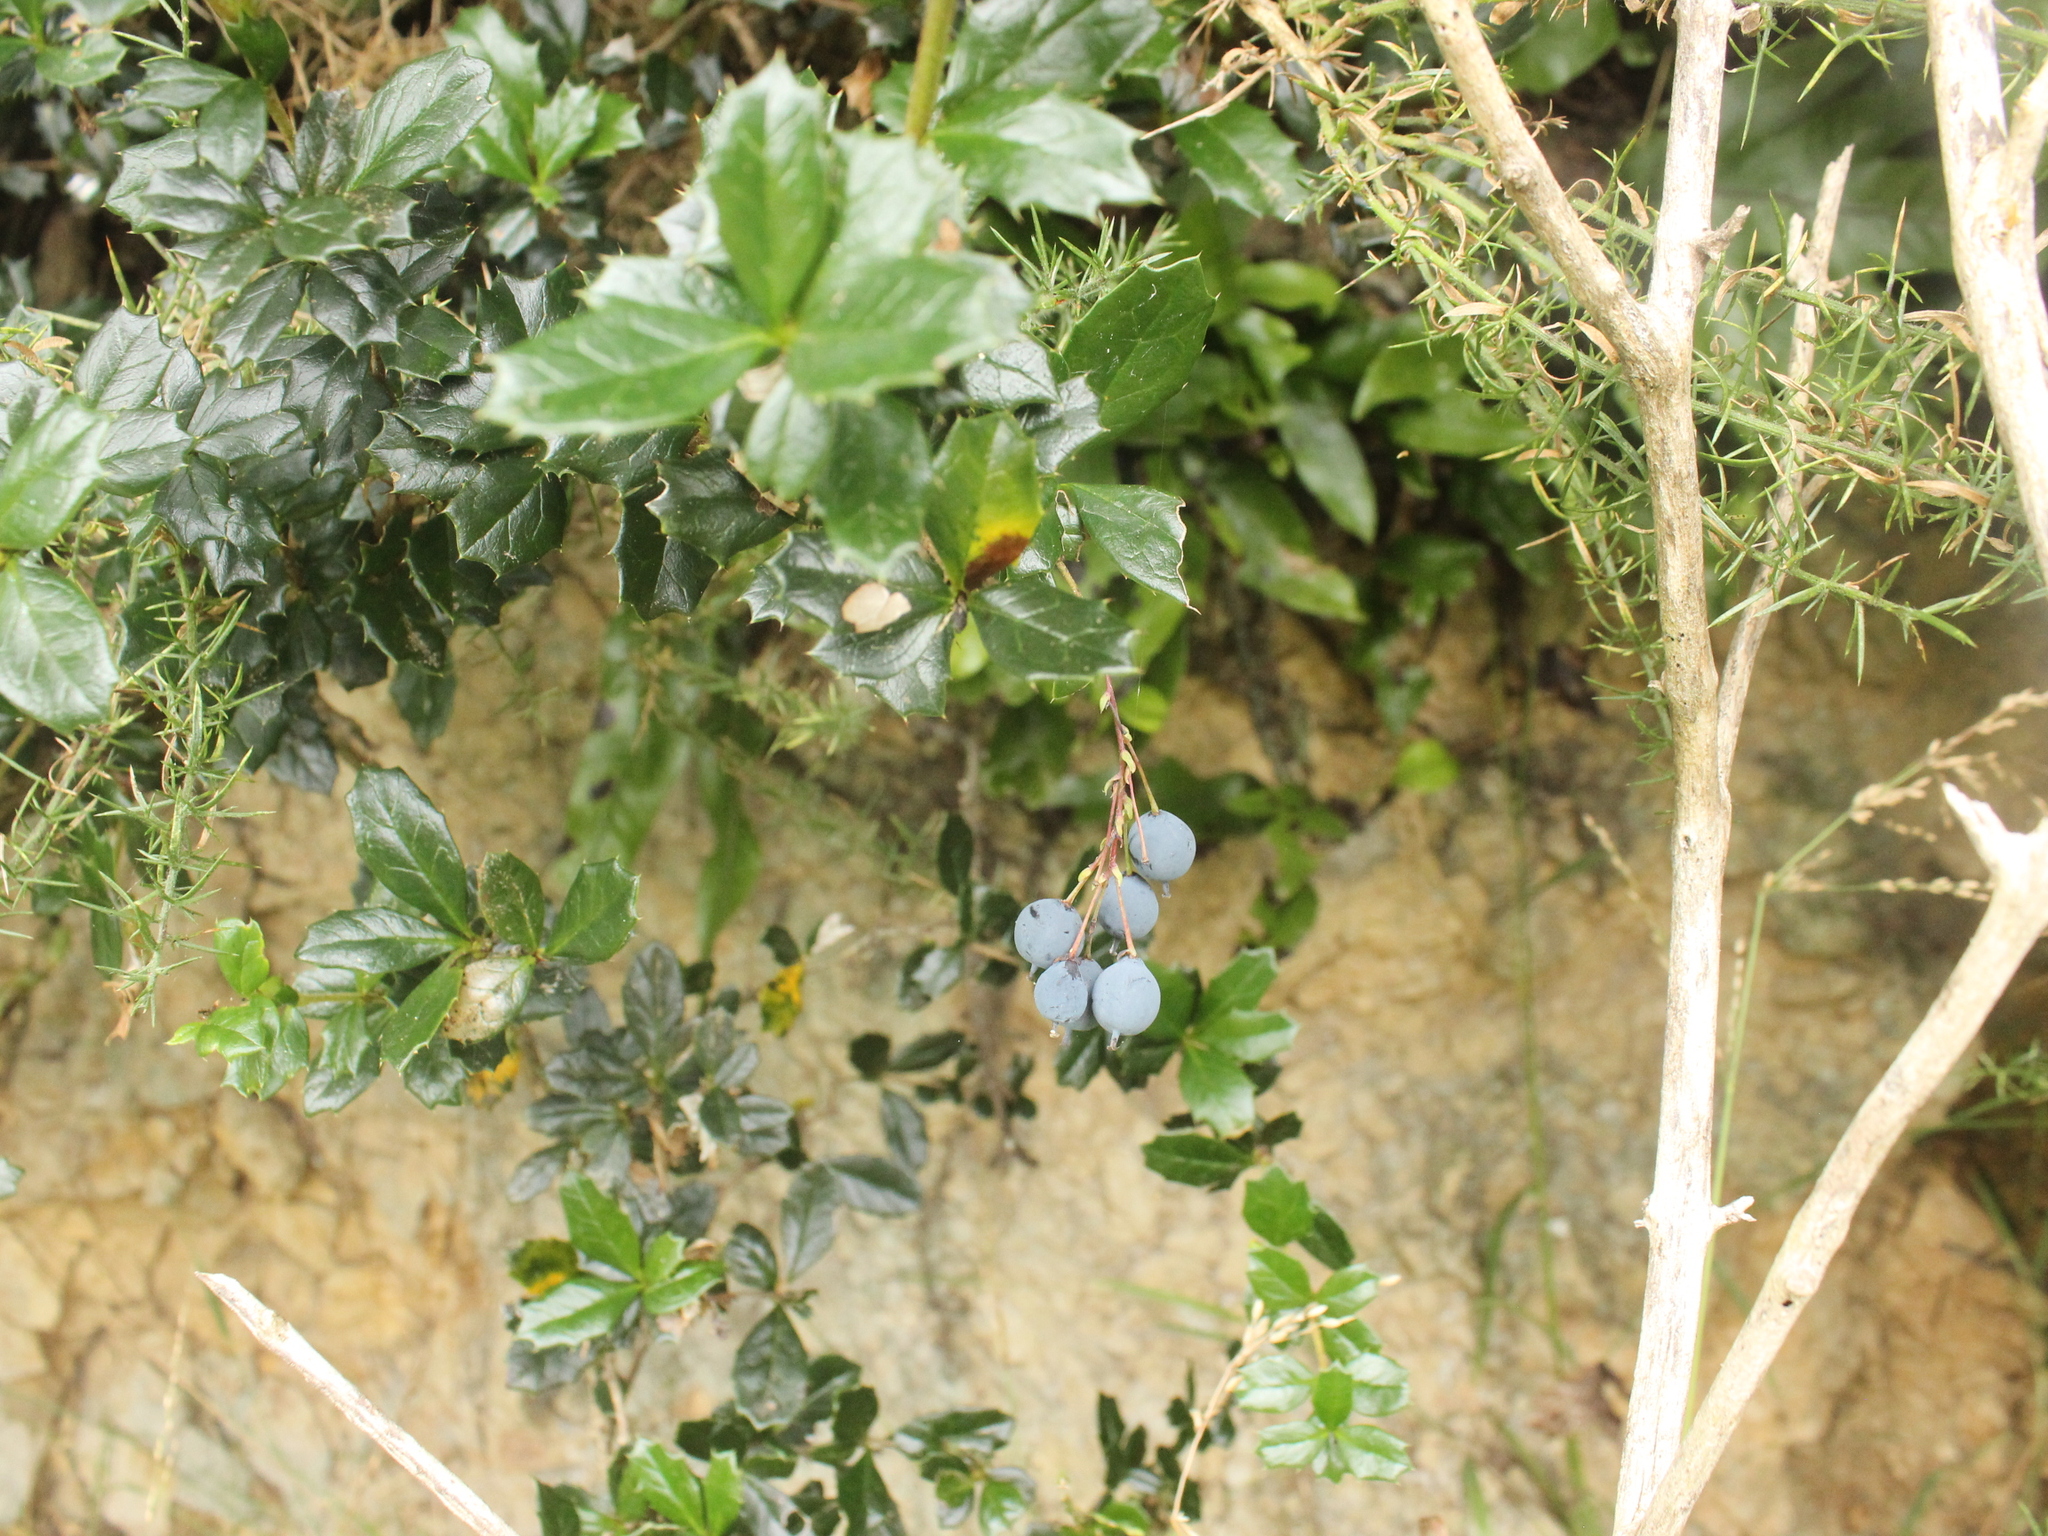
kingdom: Plantae
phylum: Tracheophyta
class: Magnoliopsida
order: Ranunculales
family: Berberidaceae
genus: Berberis
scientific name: Berberis darwinii
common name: Darwin's barberry
